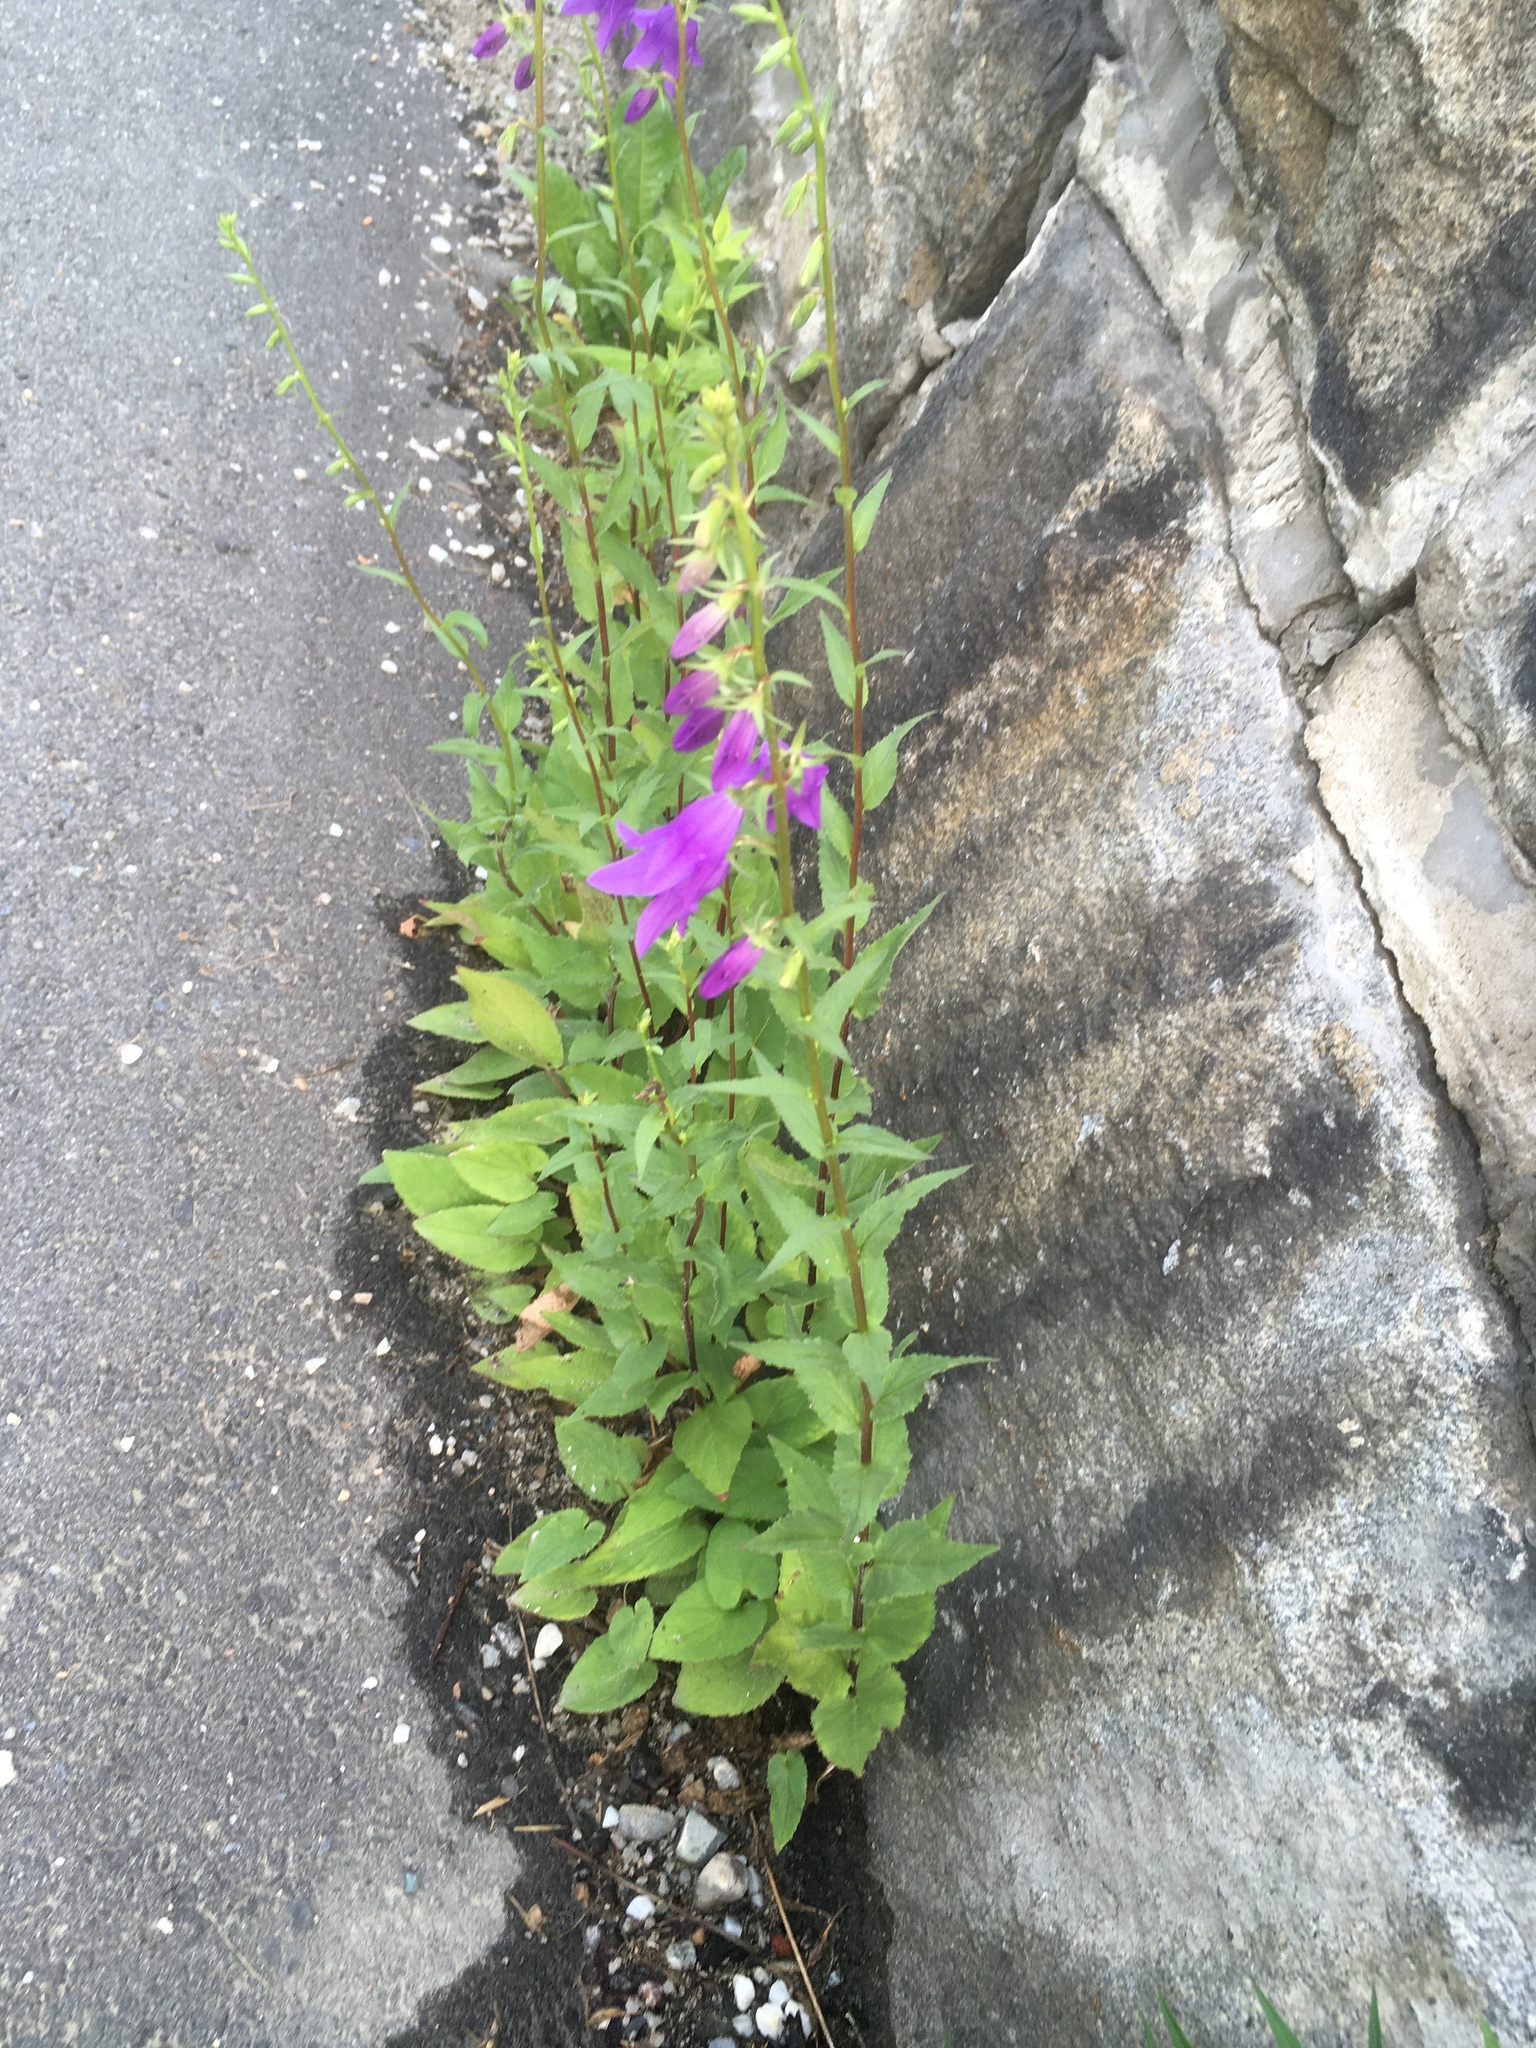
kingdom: Plantae
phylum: Tracheophyta
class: Magnoliopsida
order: Asterales
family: Campanulaceae
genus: Campanula
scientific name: Campanula rapunculoides
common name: Creeping bellflower
